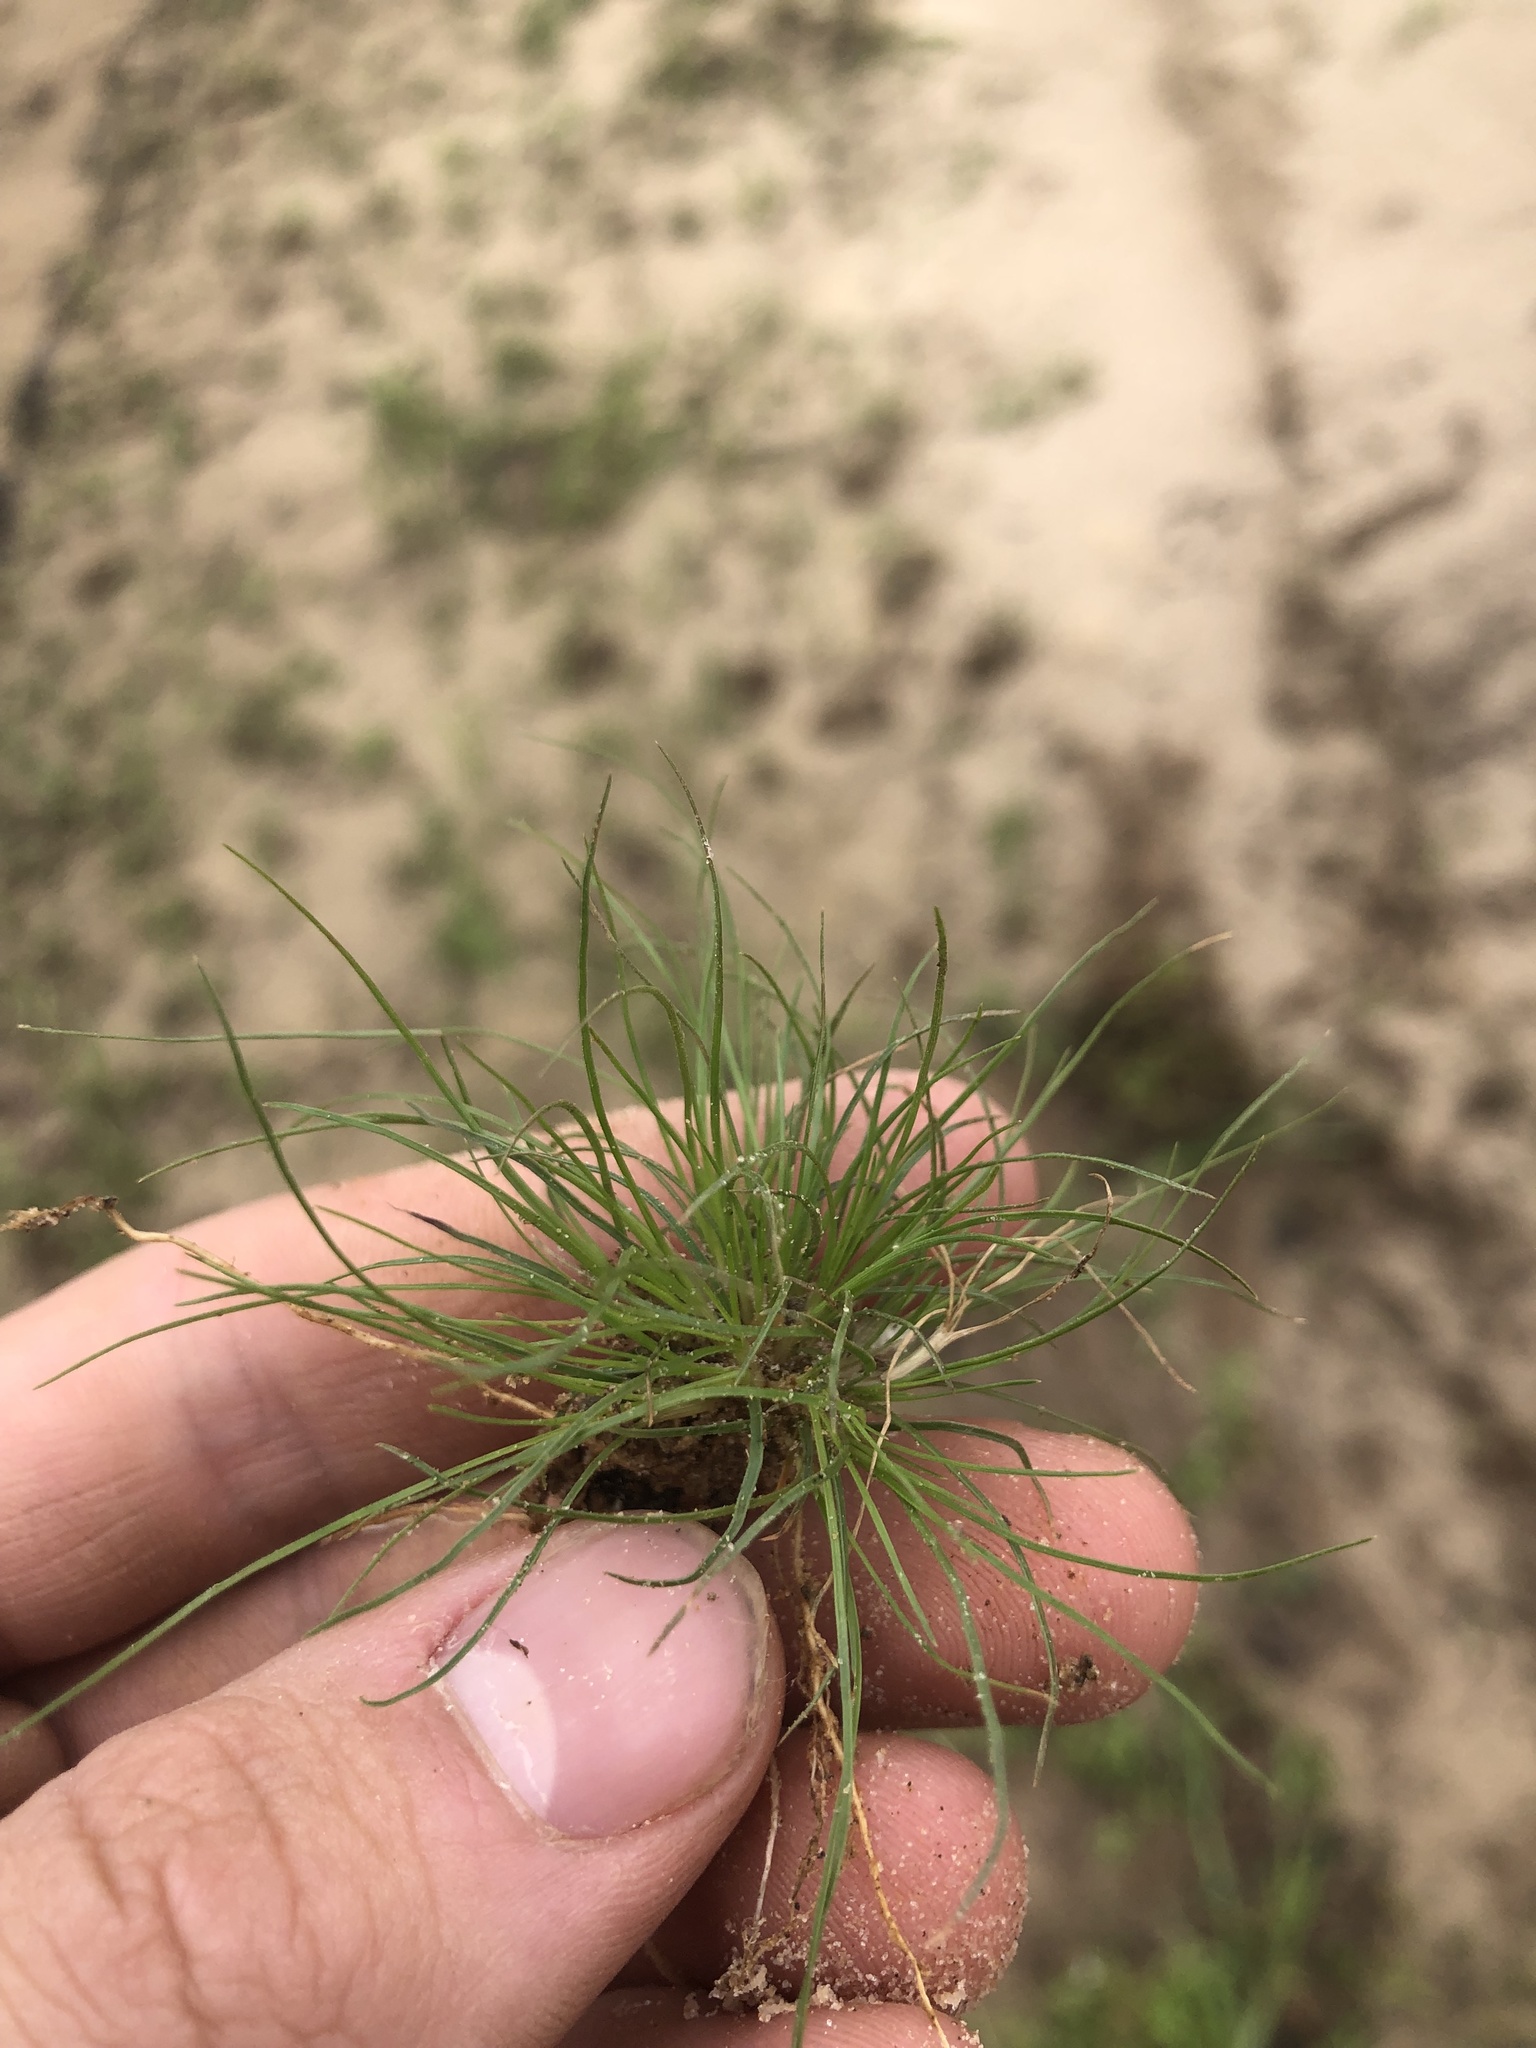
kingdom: Plantae
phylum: Tracheophyta
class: Liliopsida
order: Poales
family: Cyperaceae
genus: Fimbristylis
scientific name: Fimbristylis vahlii
